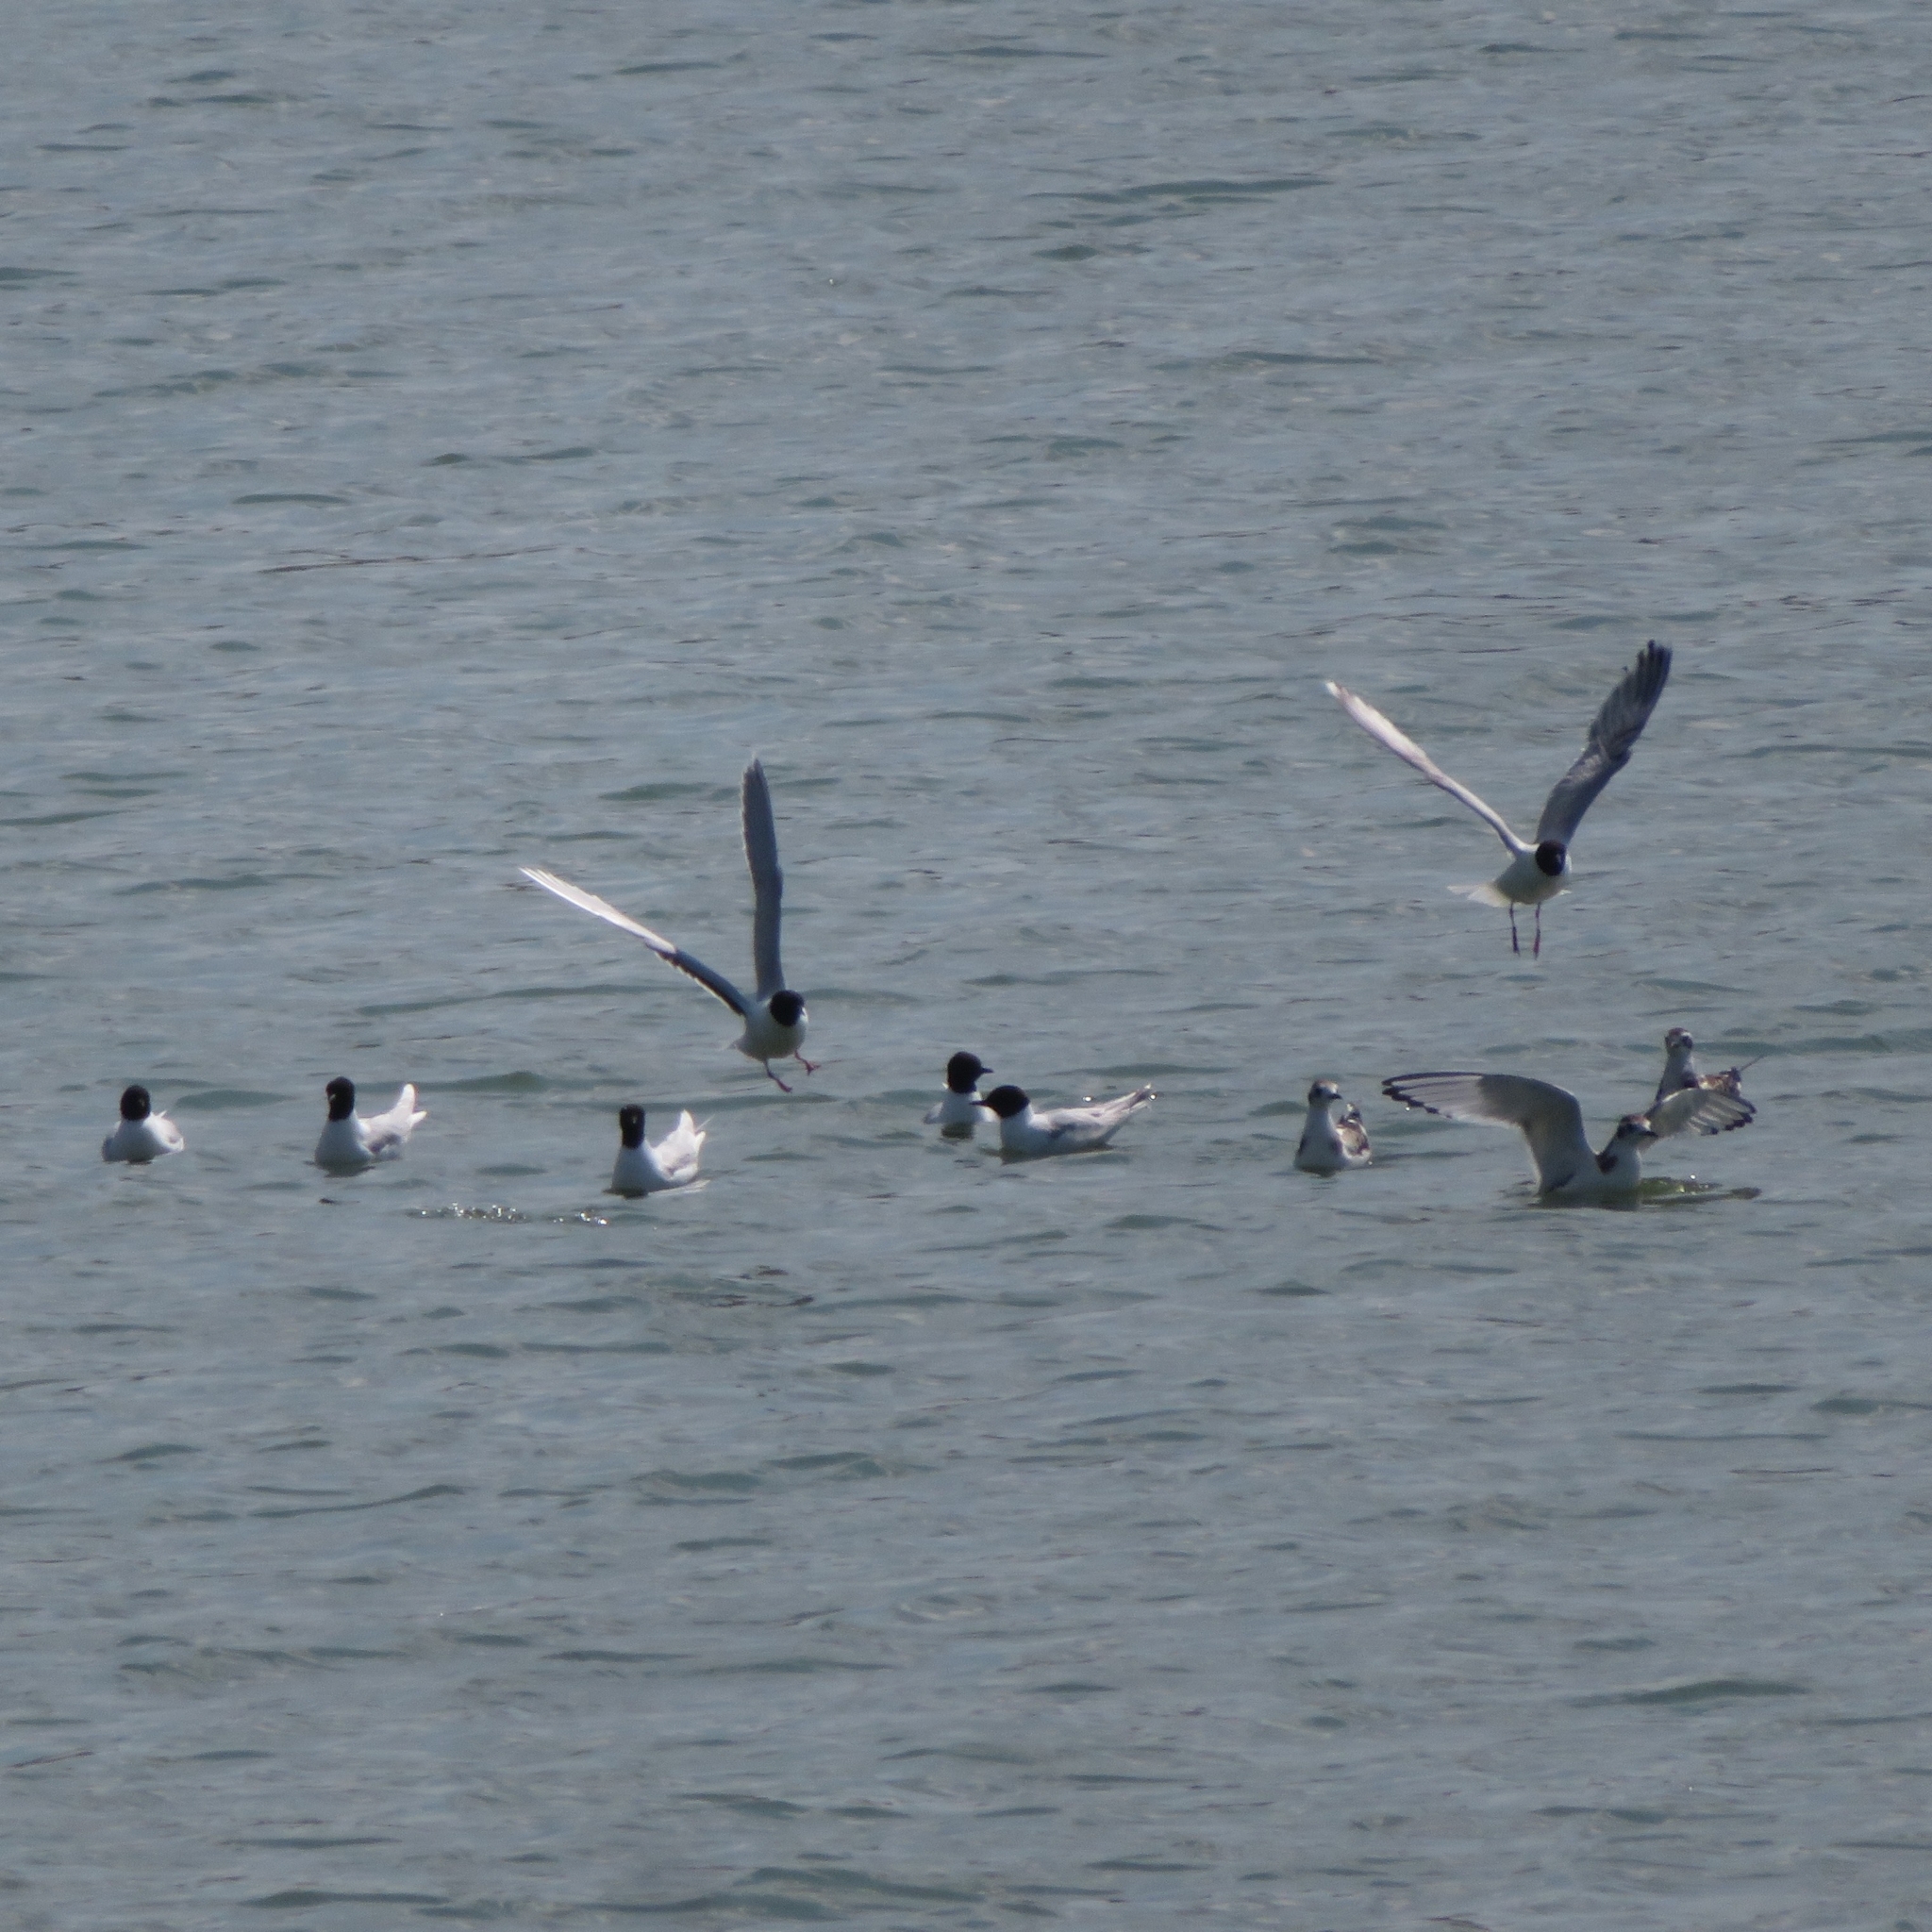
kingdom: Animalia
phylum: Chordata
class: Aves
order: Charadriiformes
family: Laridae
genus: Hydrocoloeus
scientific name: Hydrocoloeus minutus
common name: Little gull
